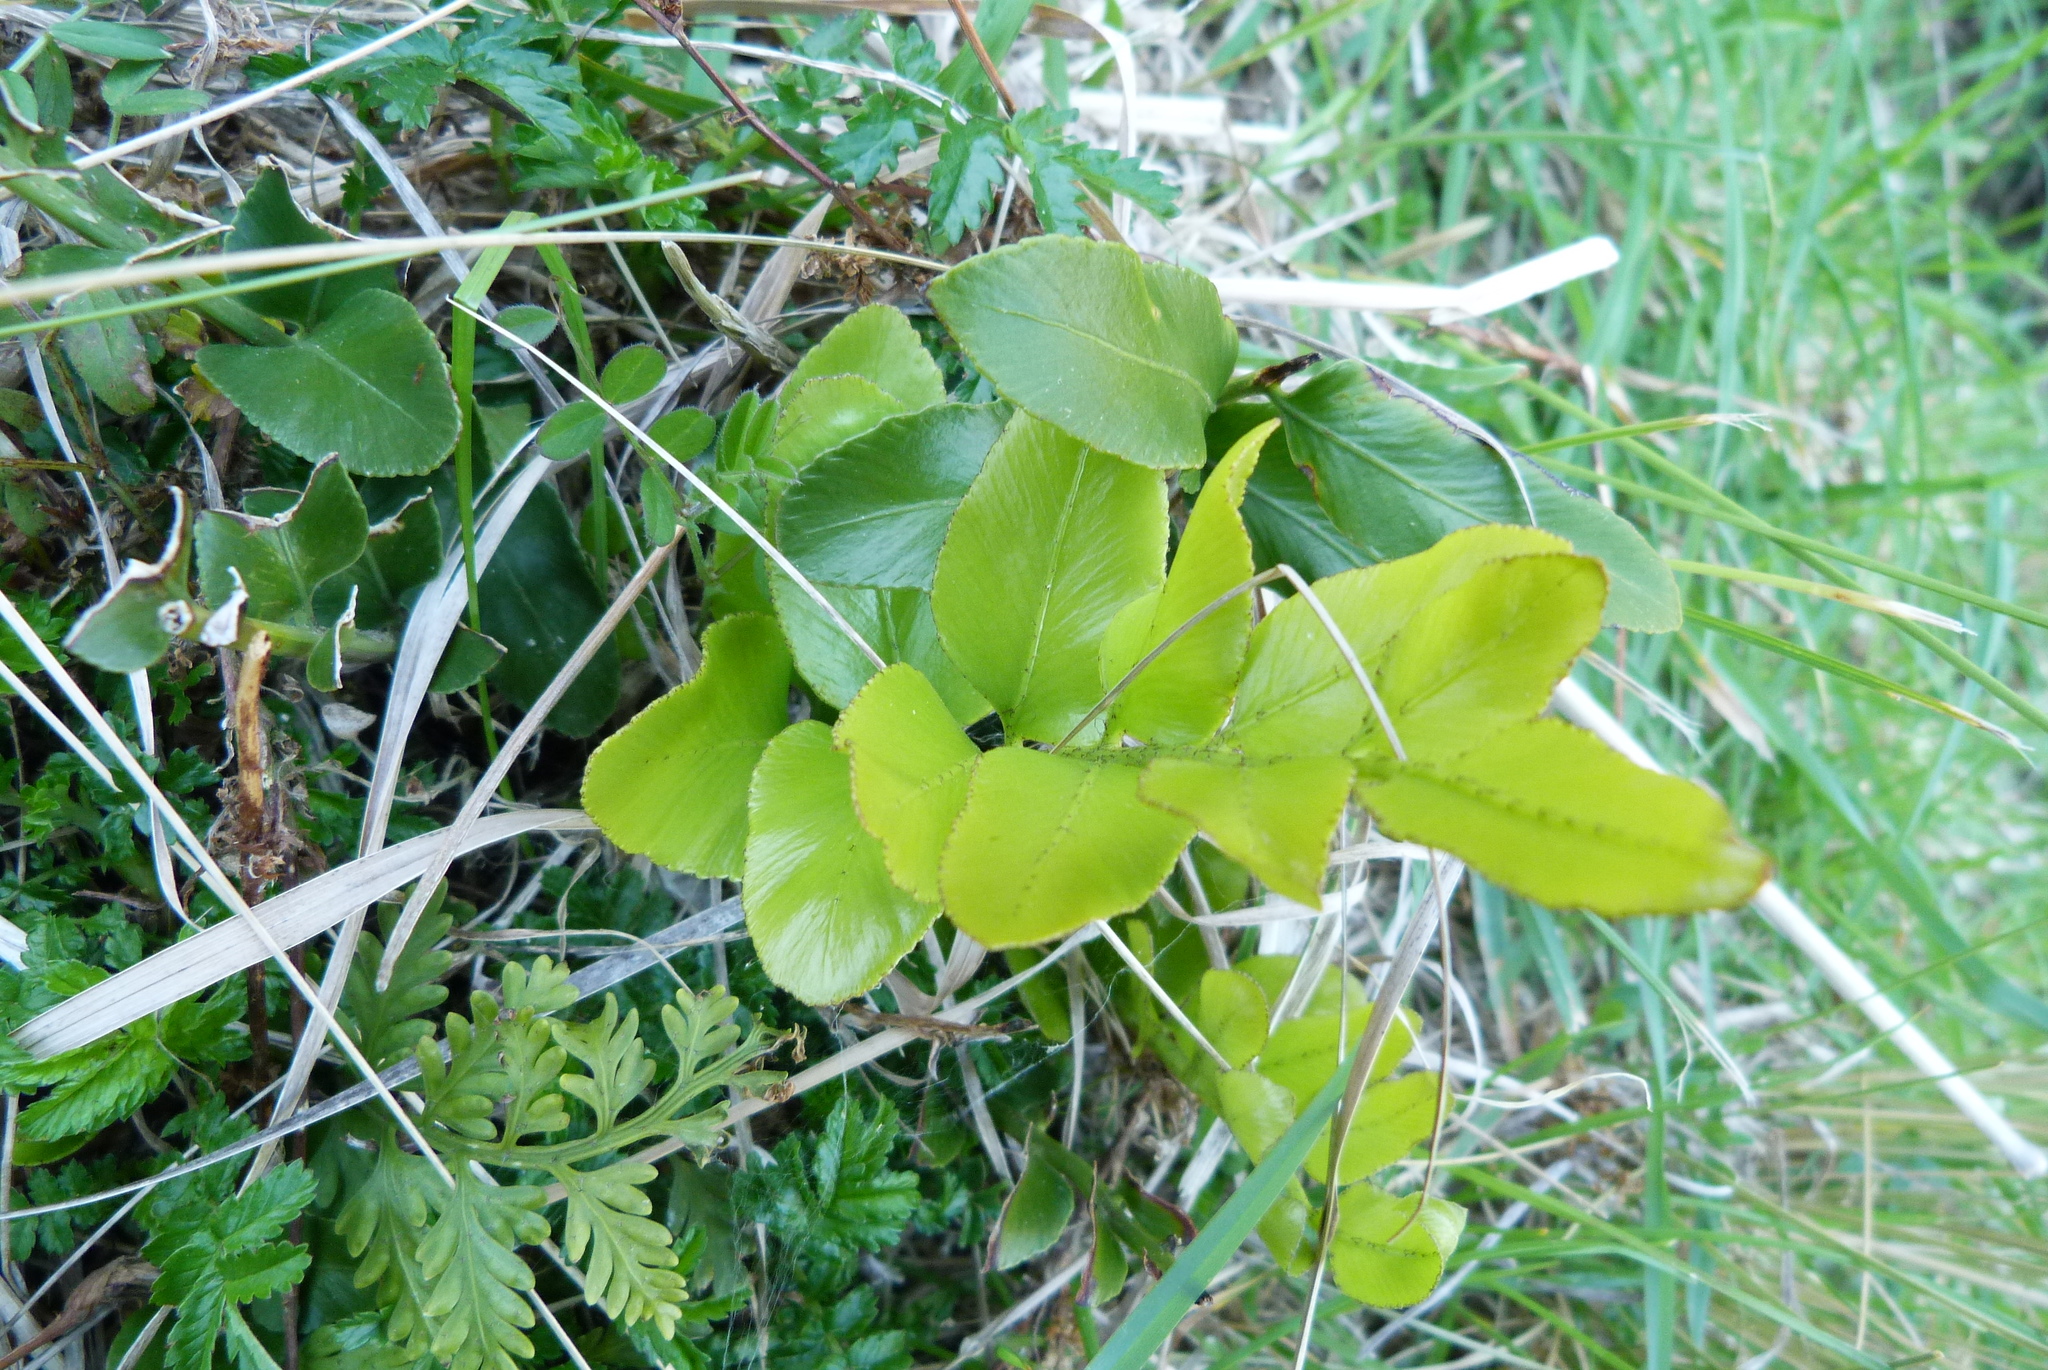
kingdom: Plantae
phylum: Tracheophyta
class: Polypodiopsida
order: Polypodiales
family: Aspleniaceae
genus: Asplenium
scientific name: Asplenium oblongifolium
